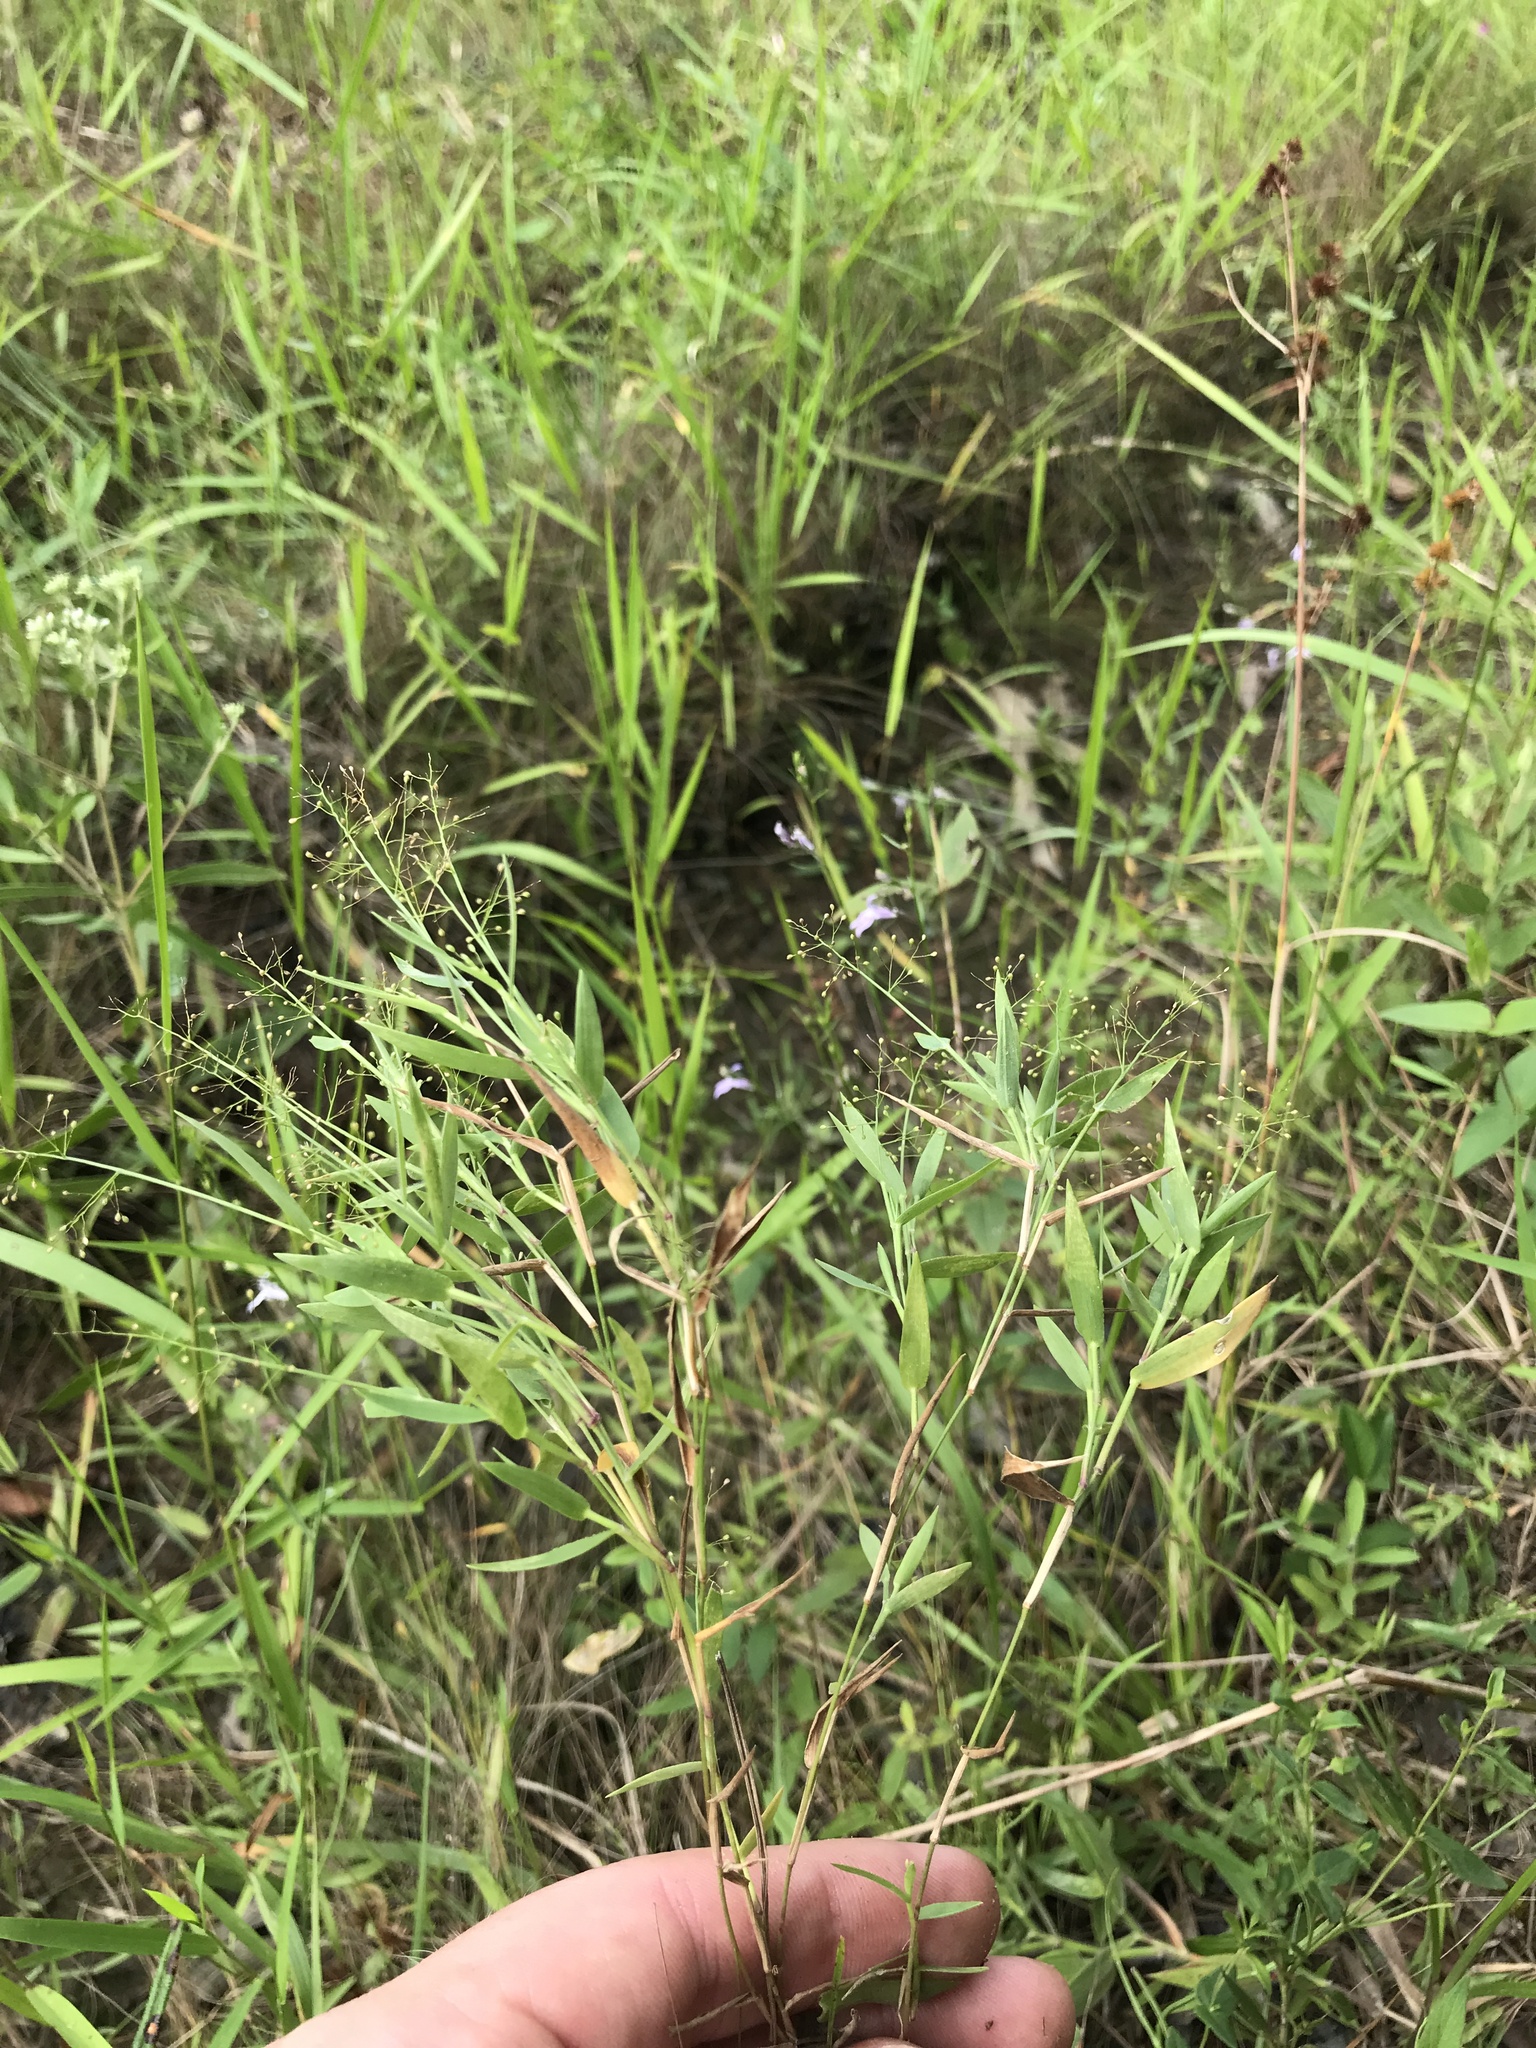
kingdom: Plantae
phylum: Tracheophyta
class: Liliopsida
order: Poales
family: Poaceae
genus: Dichanthelium
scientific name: Dichanthelium wrightianum
